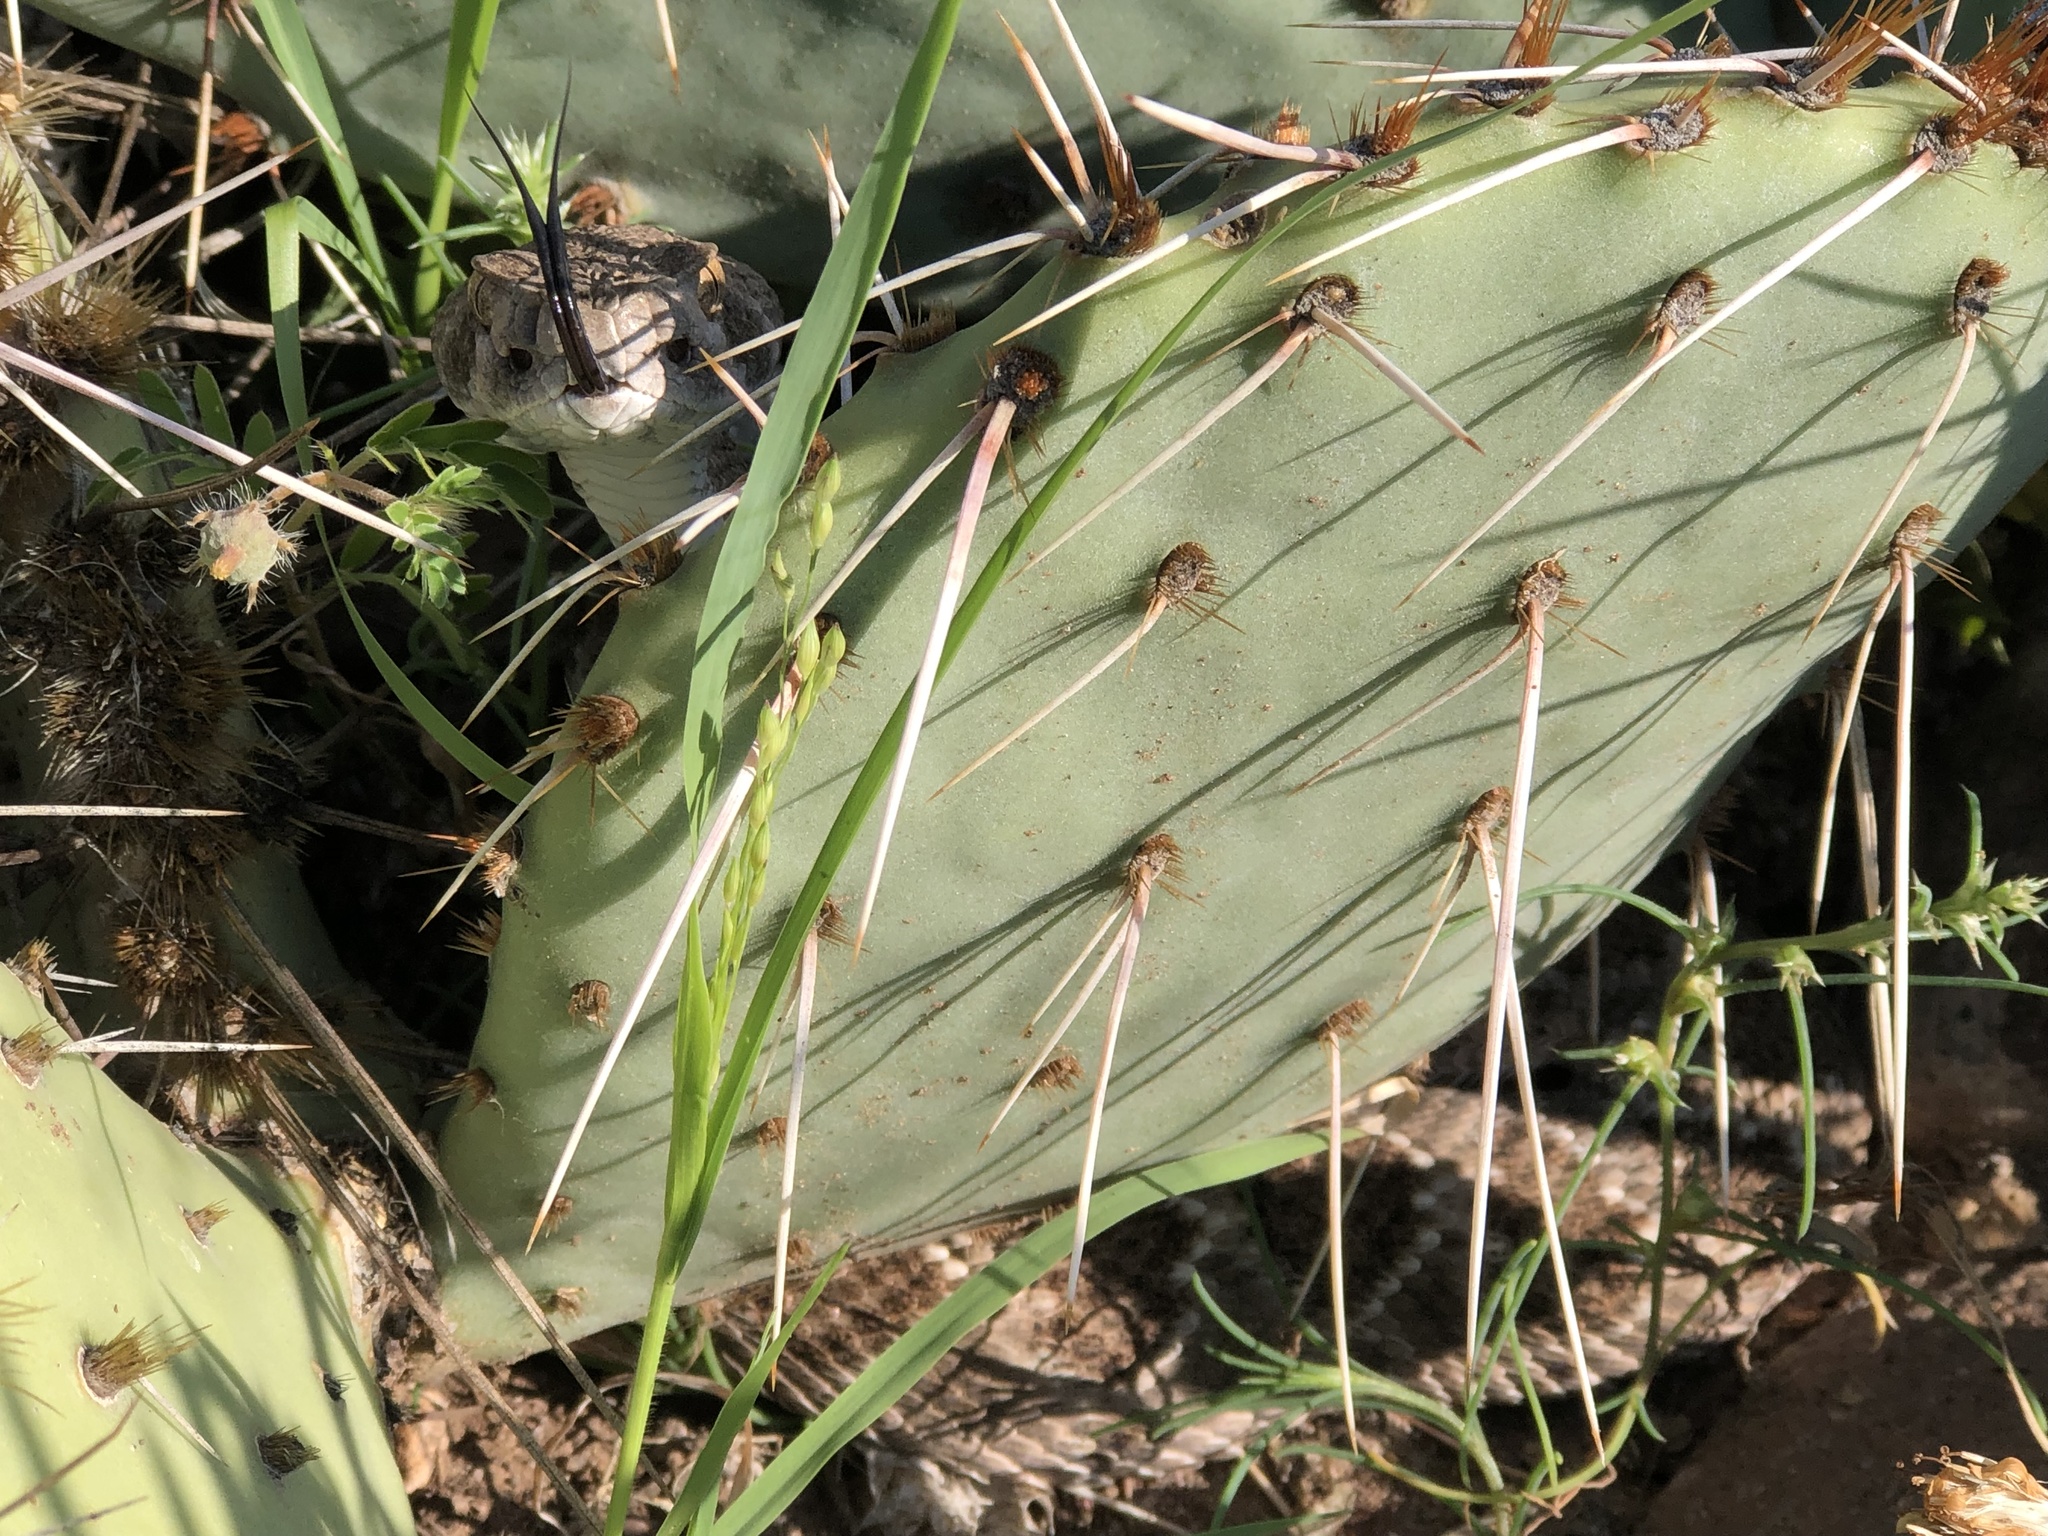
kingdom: Animalia
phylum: Chordata
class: Squamata
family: Viperidae
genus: Crotalus
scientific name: Crotalus atrox
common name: Western diamond-backed rattlesnake
